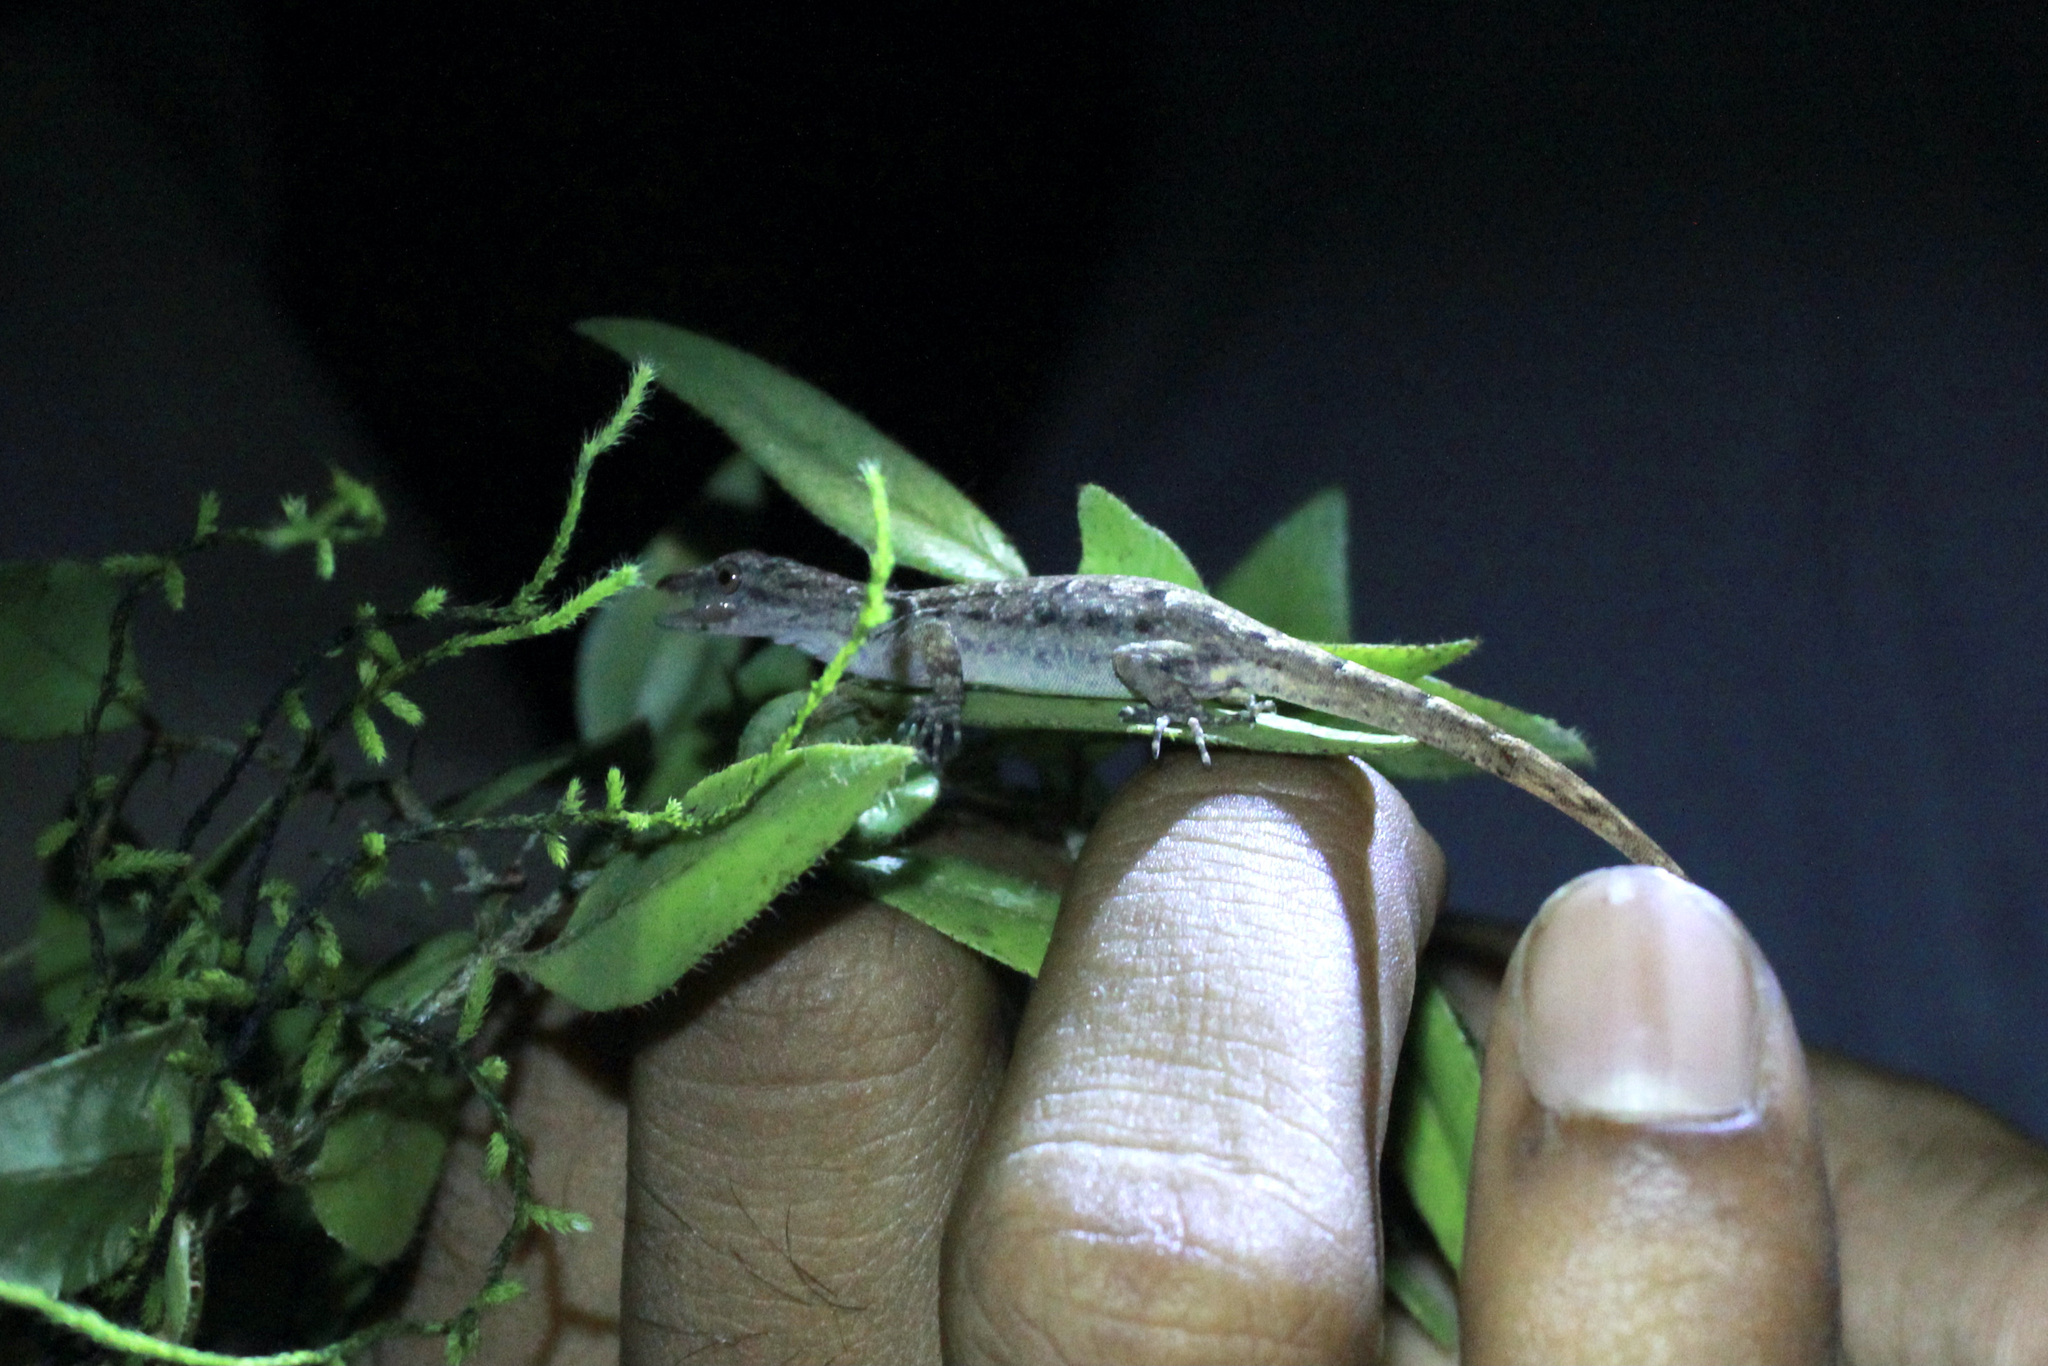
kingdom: Animalia
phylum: Chordata
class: Squamata
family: Sphaerodactylidae
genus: Gonatodes
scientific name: Gonatodes humeralis
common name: South american clawed gecko
